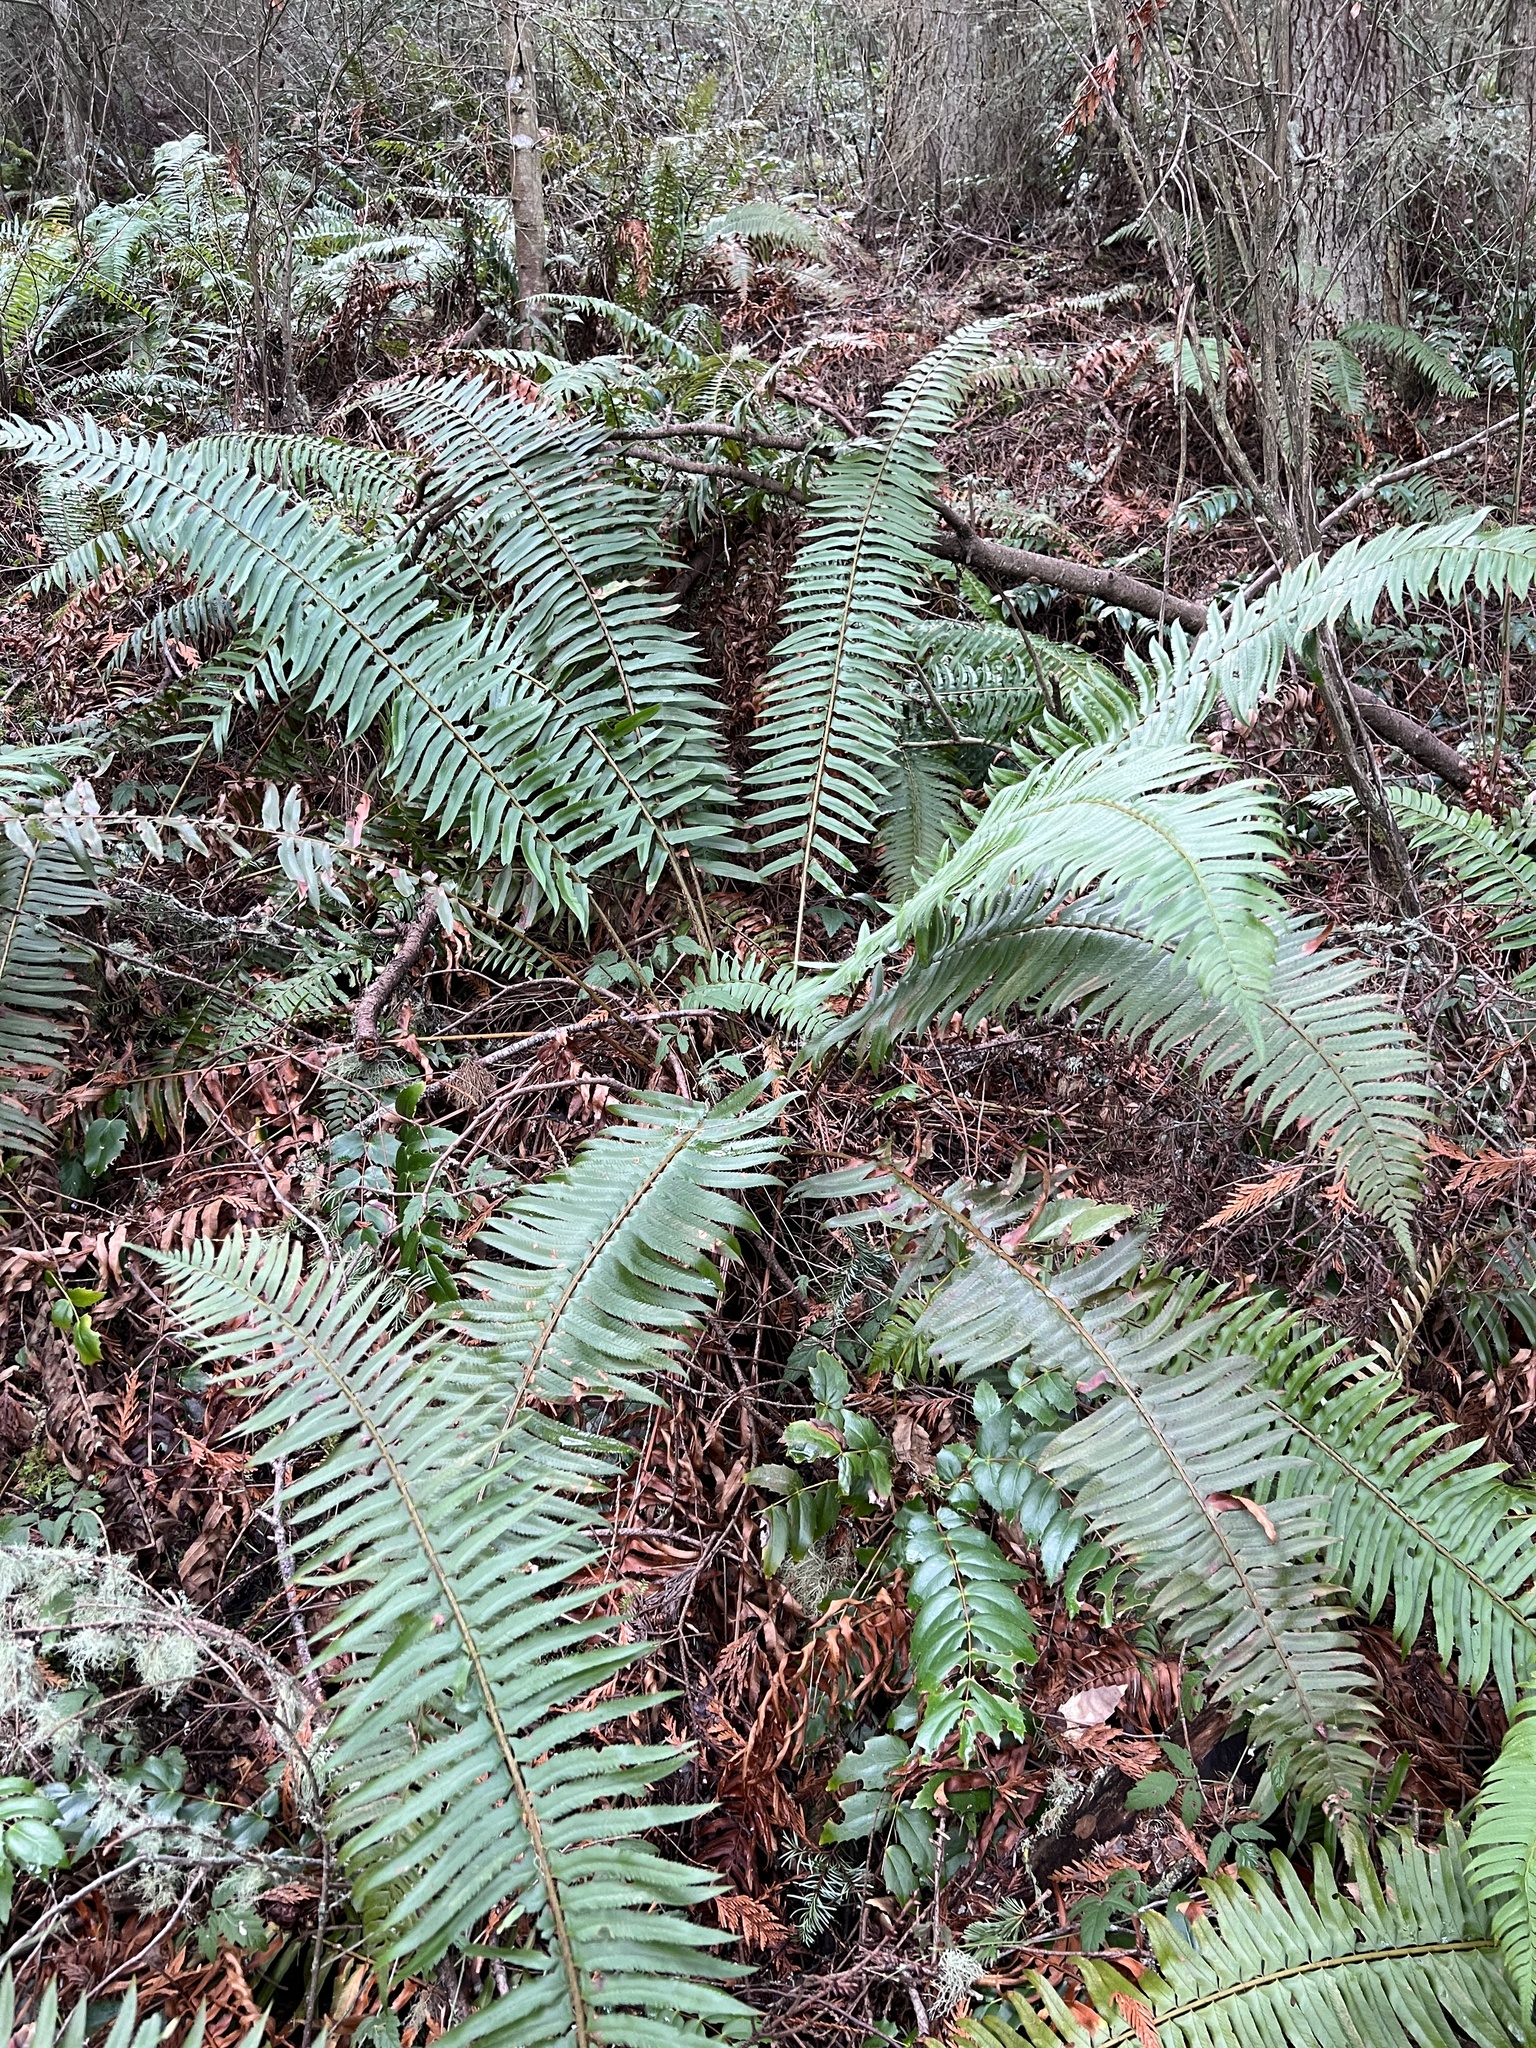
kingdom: Plantae
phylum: Tracheophyta
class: Polypodiopsida
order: Polypodiales
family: Dryopteridaceae
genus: Polystichum
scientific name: Polystichum munitum
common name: Western sword-fern
